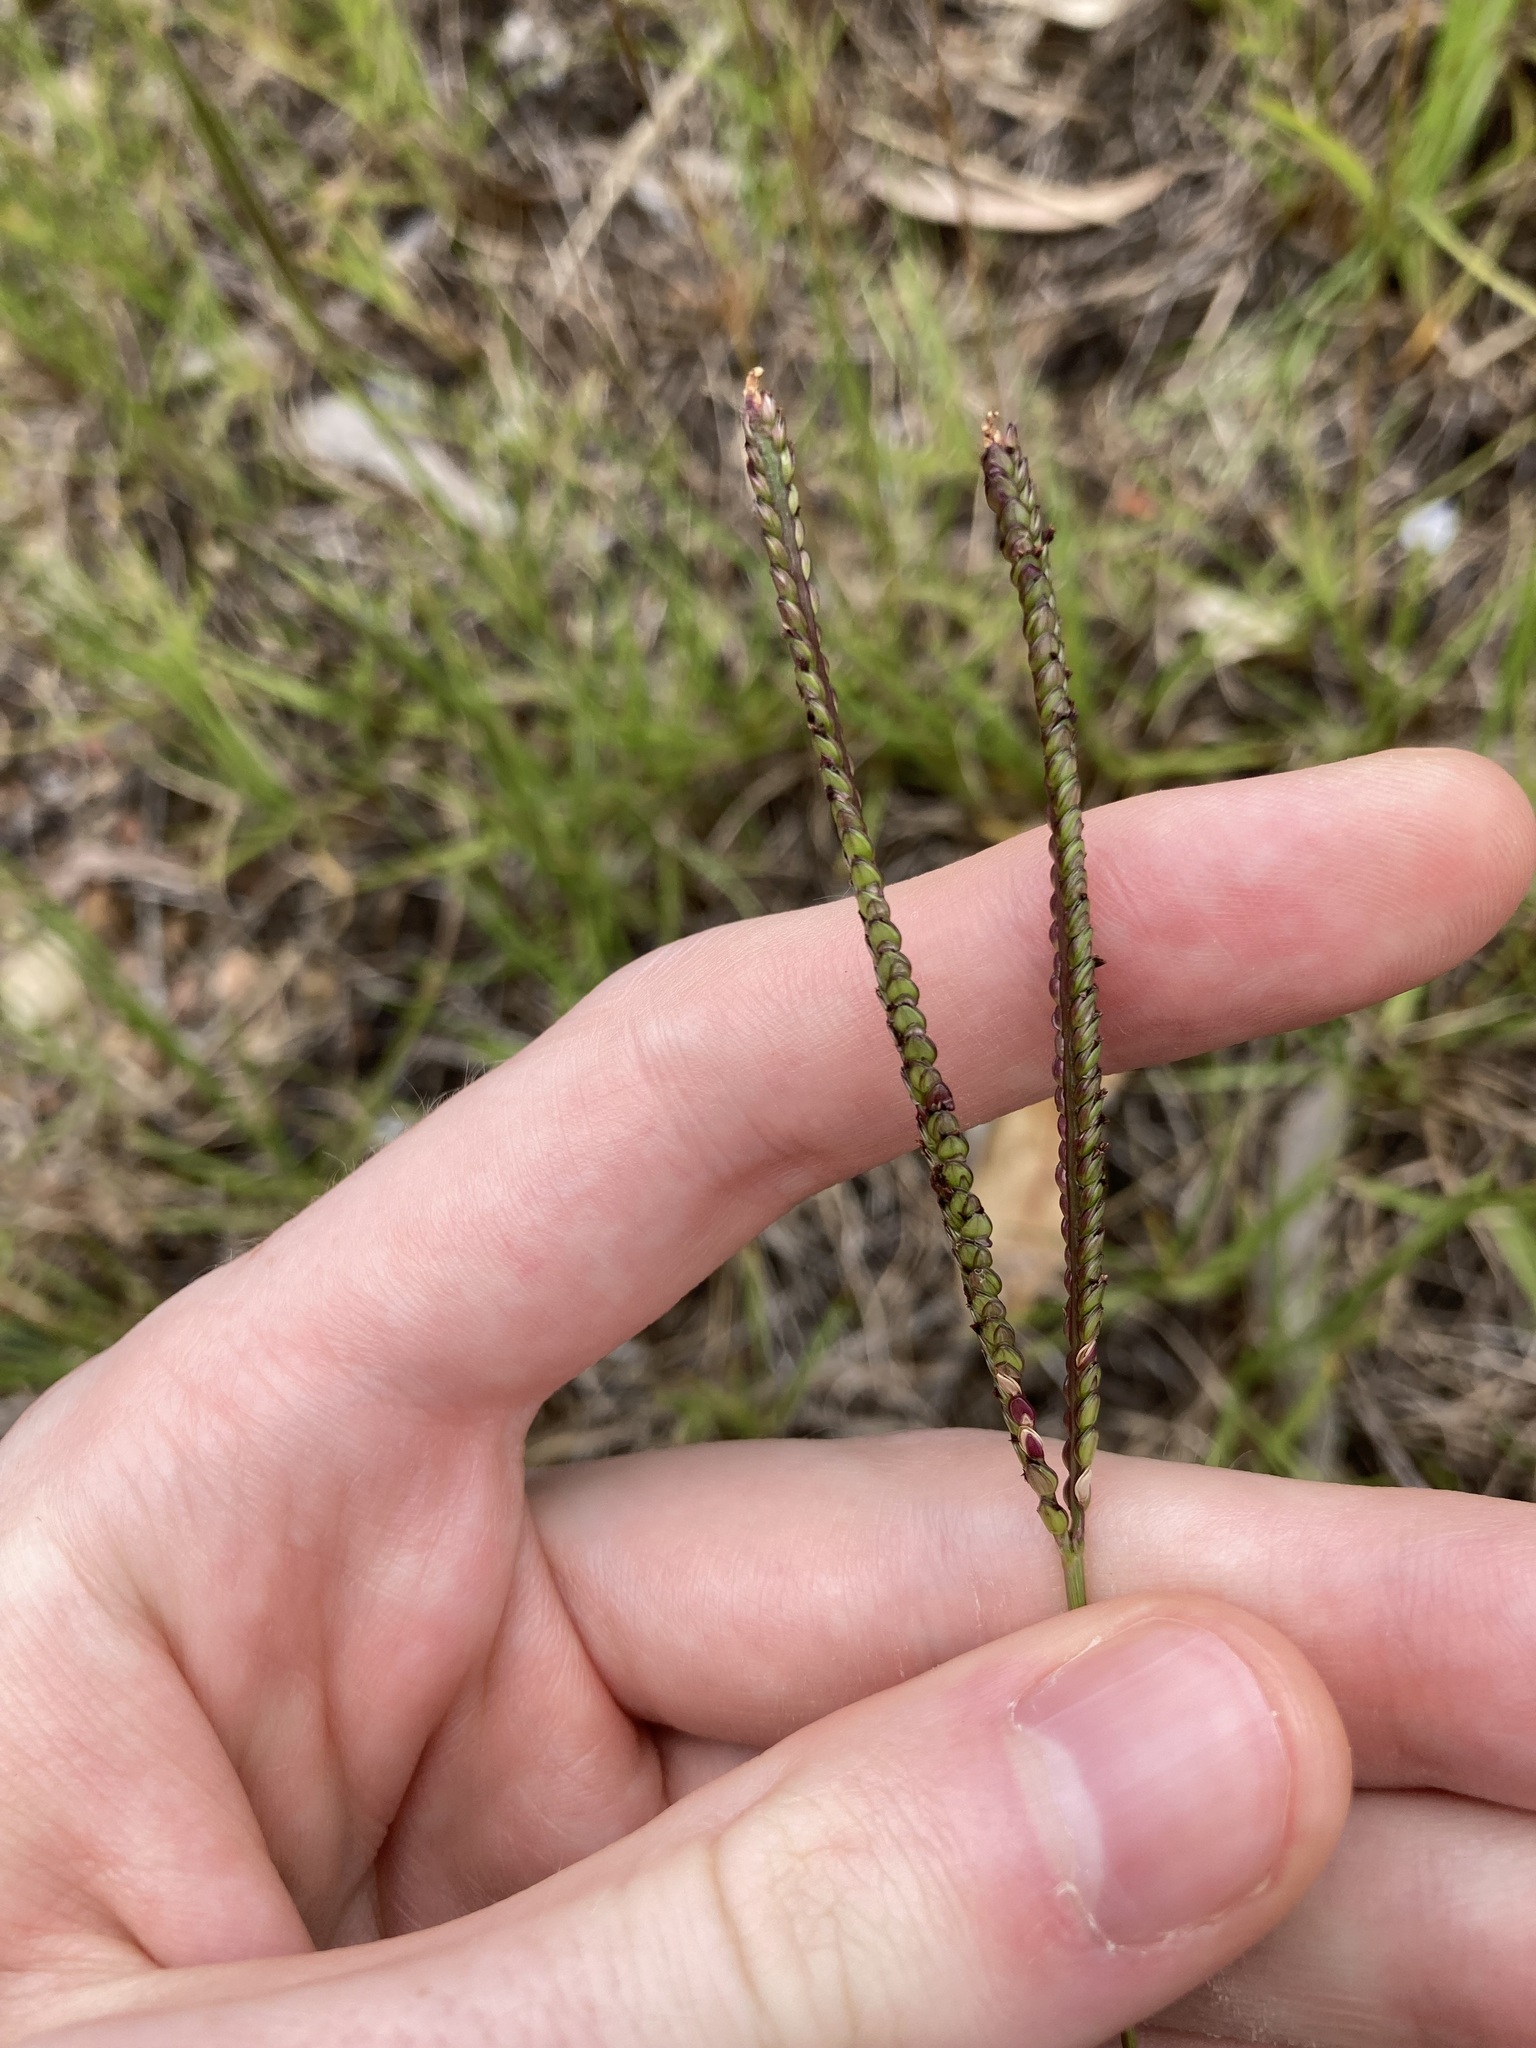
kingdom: Plantae
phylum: Tracheophyta
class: Liliopsida
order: Poales
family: Poaceae
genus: Paspalum
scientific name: Paspalum notatum
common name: Bahiagrass
